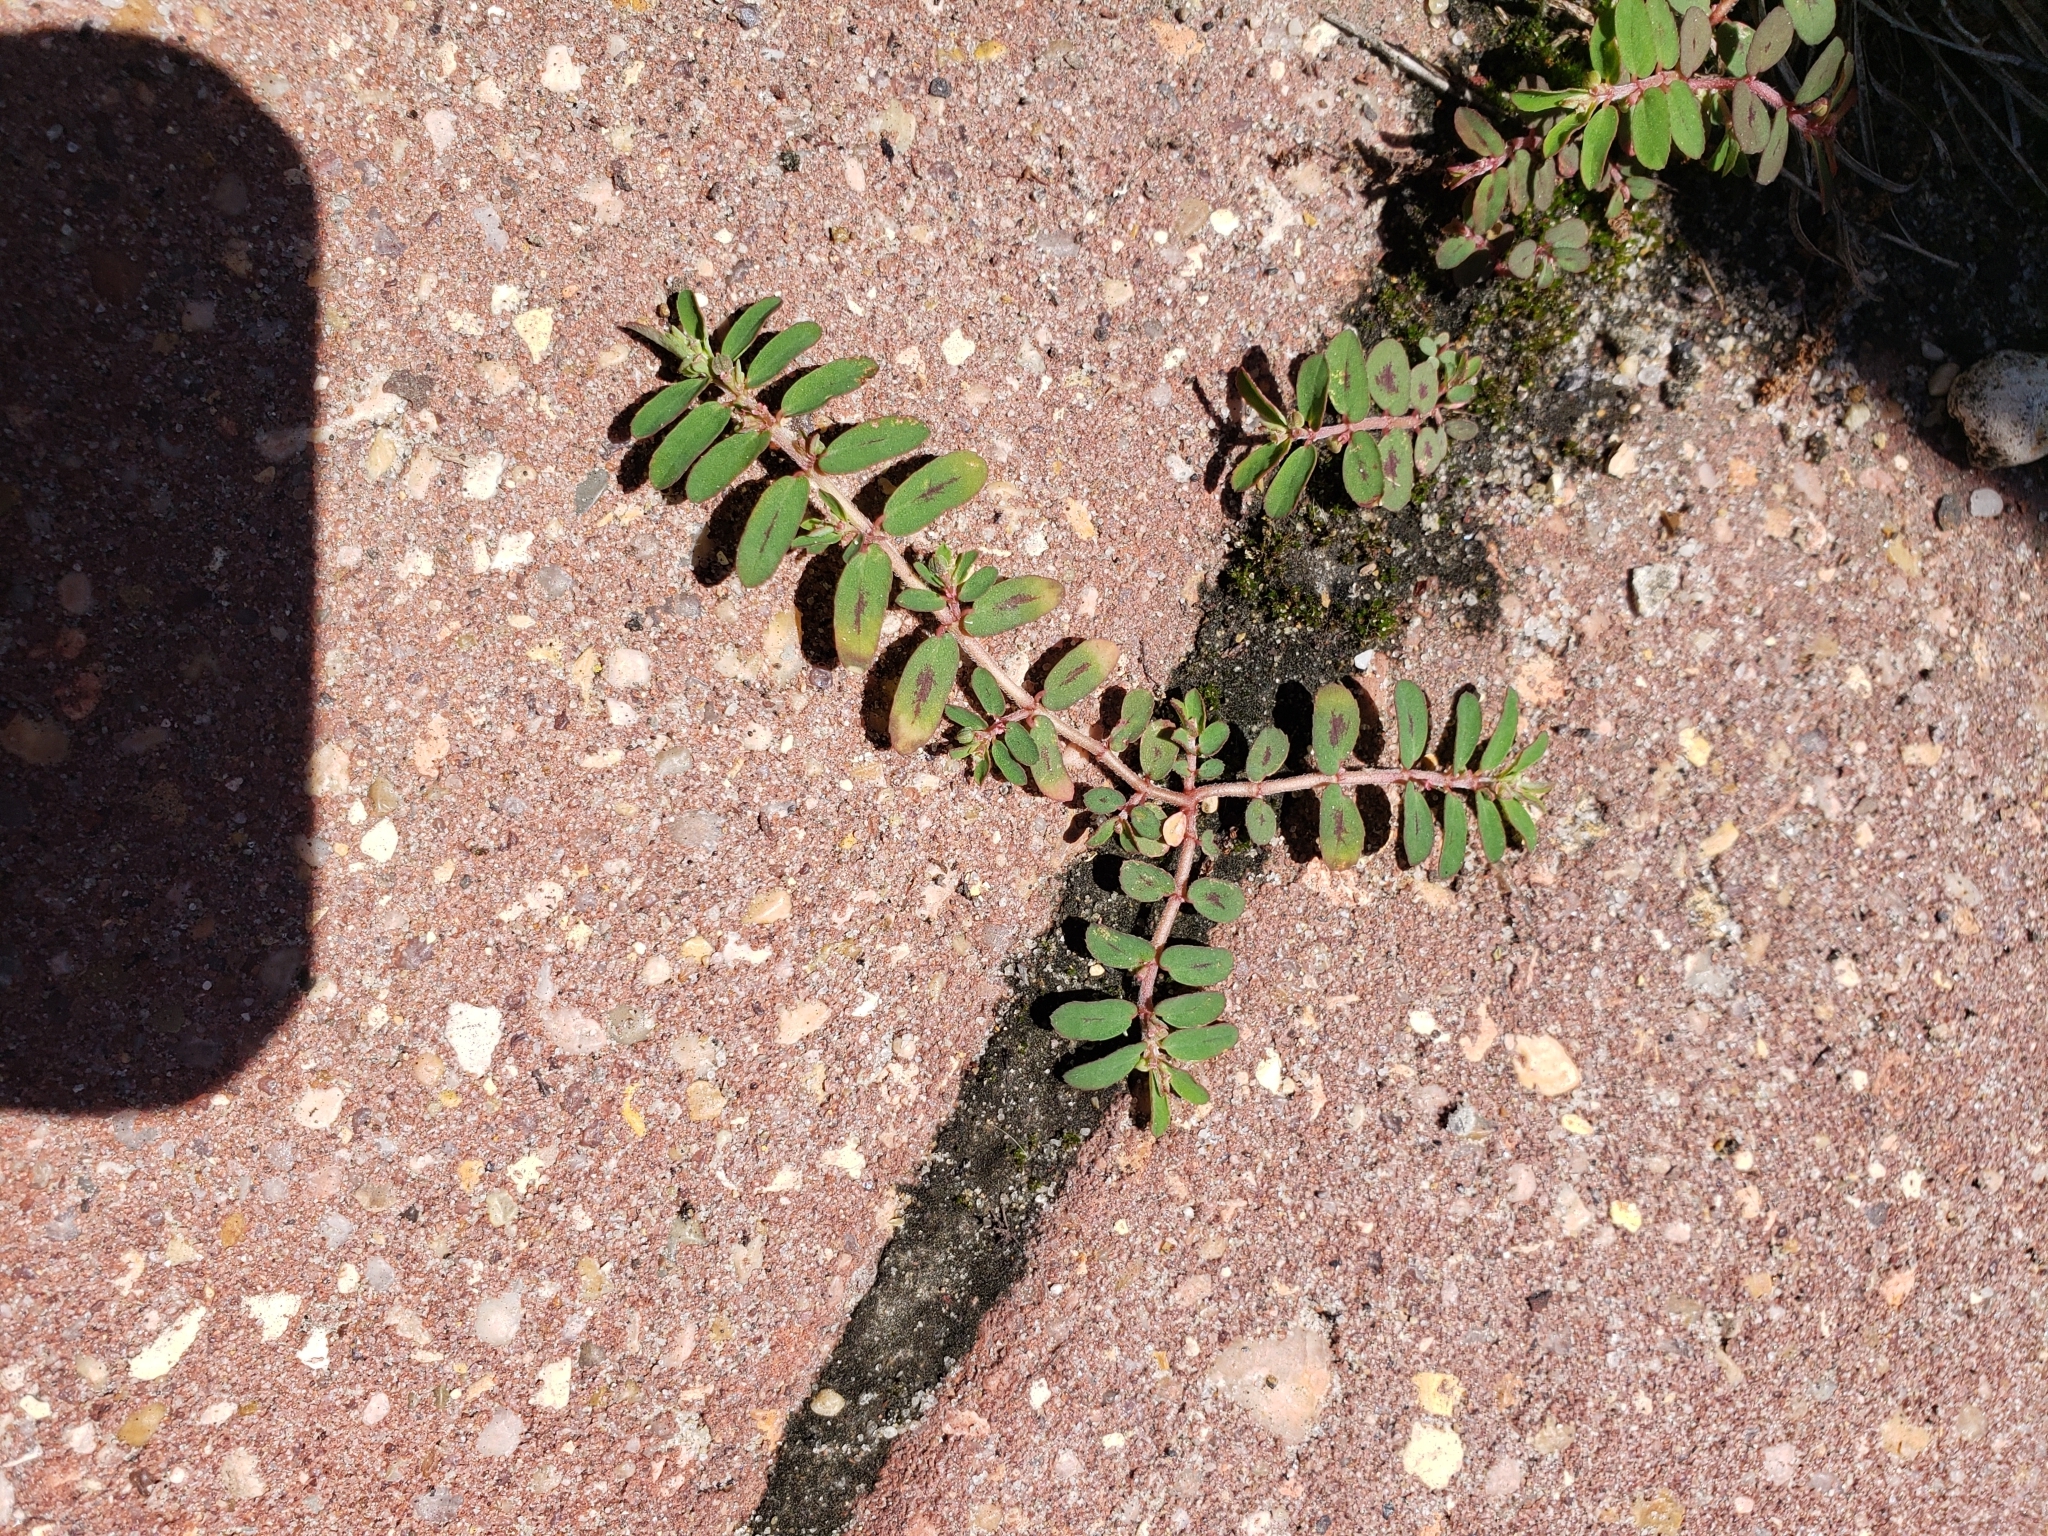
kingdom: Plantae
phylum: Tracheophyta
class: Magnoliopsida
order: Malpighiales
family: Euphorbiaceae
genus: Euphorbia
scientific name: Euphorbia maculata
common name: Spotted spurge
